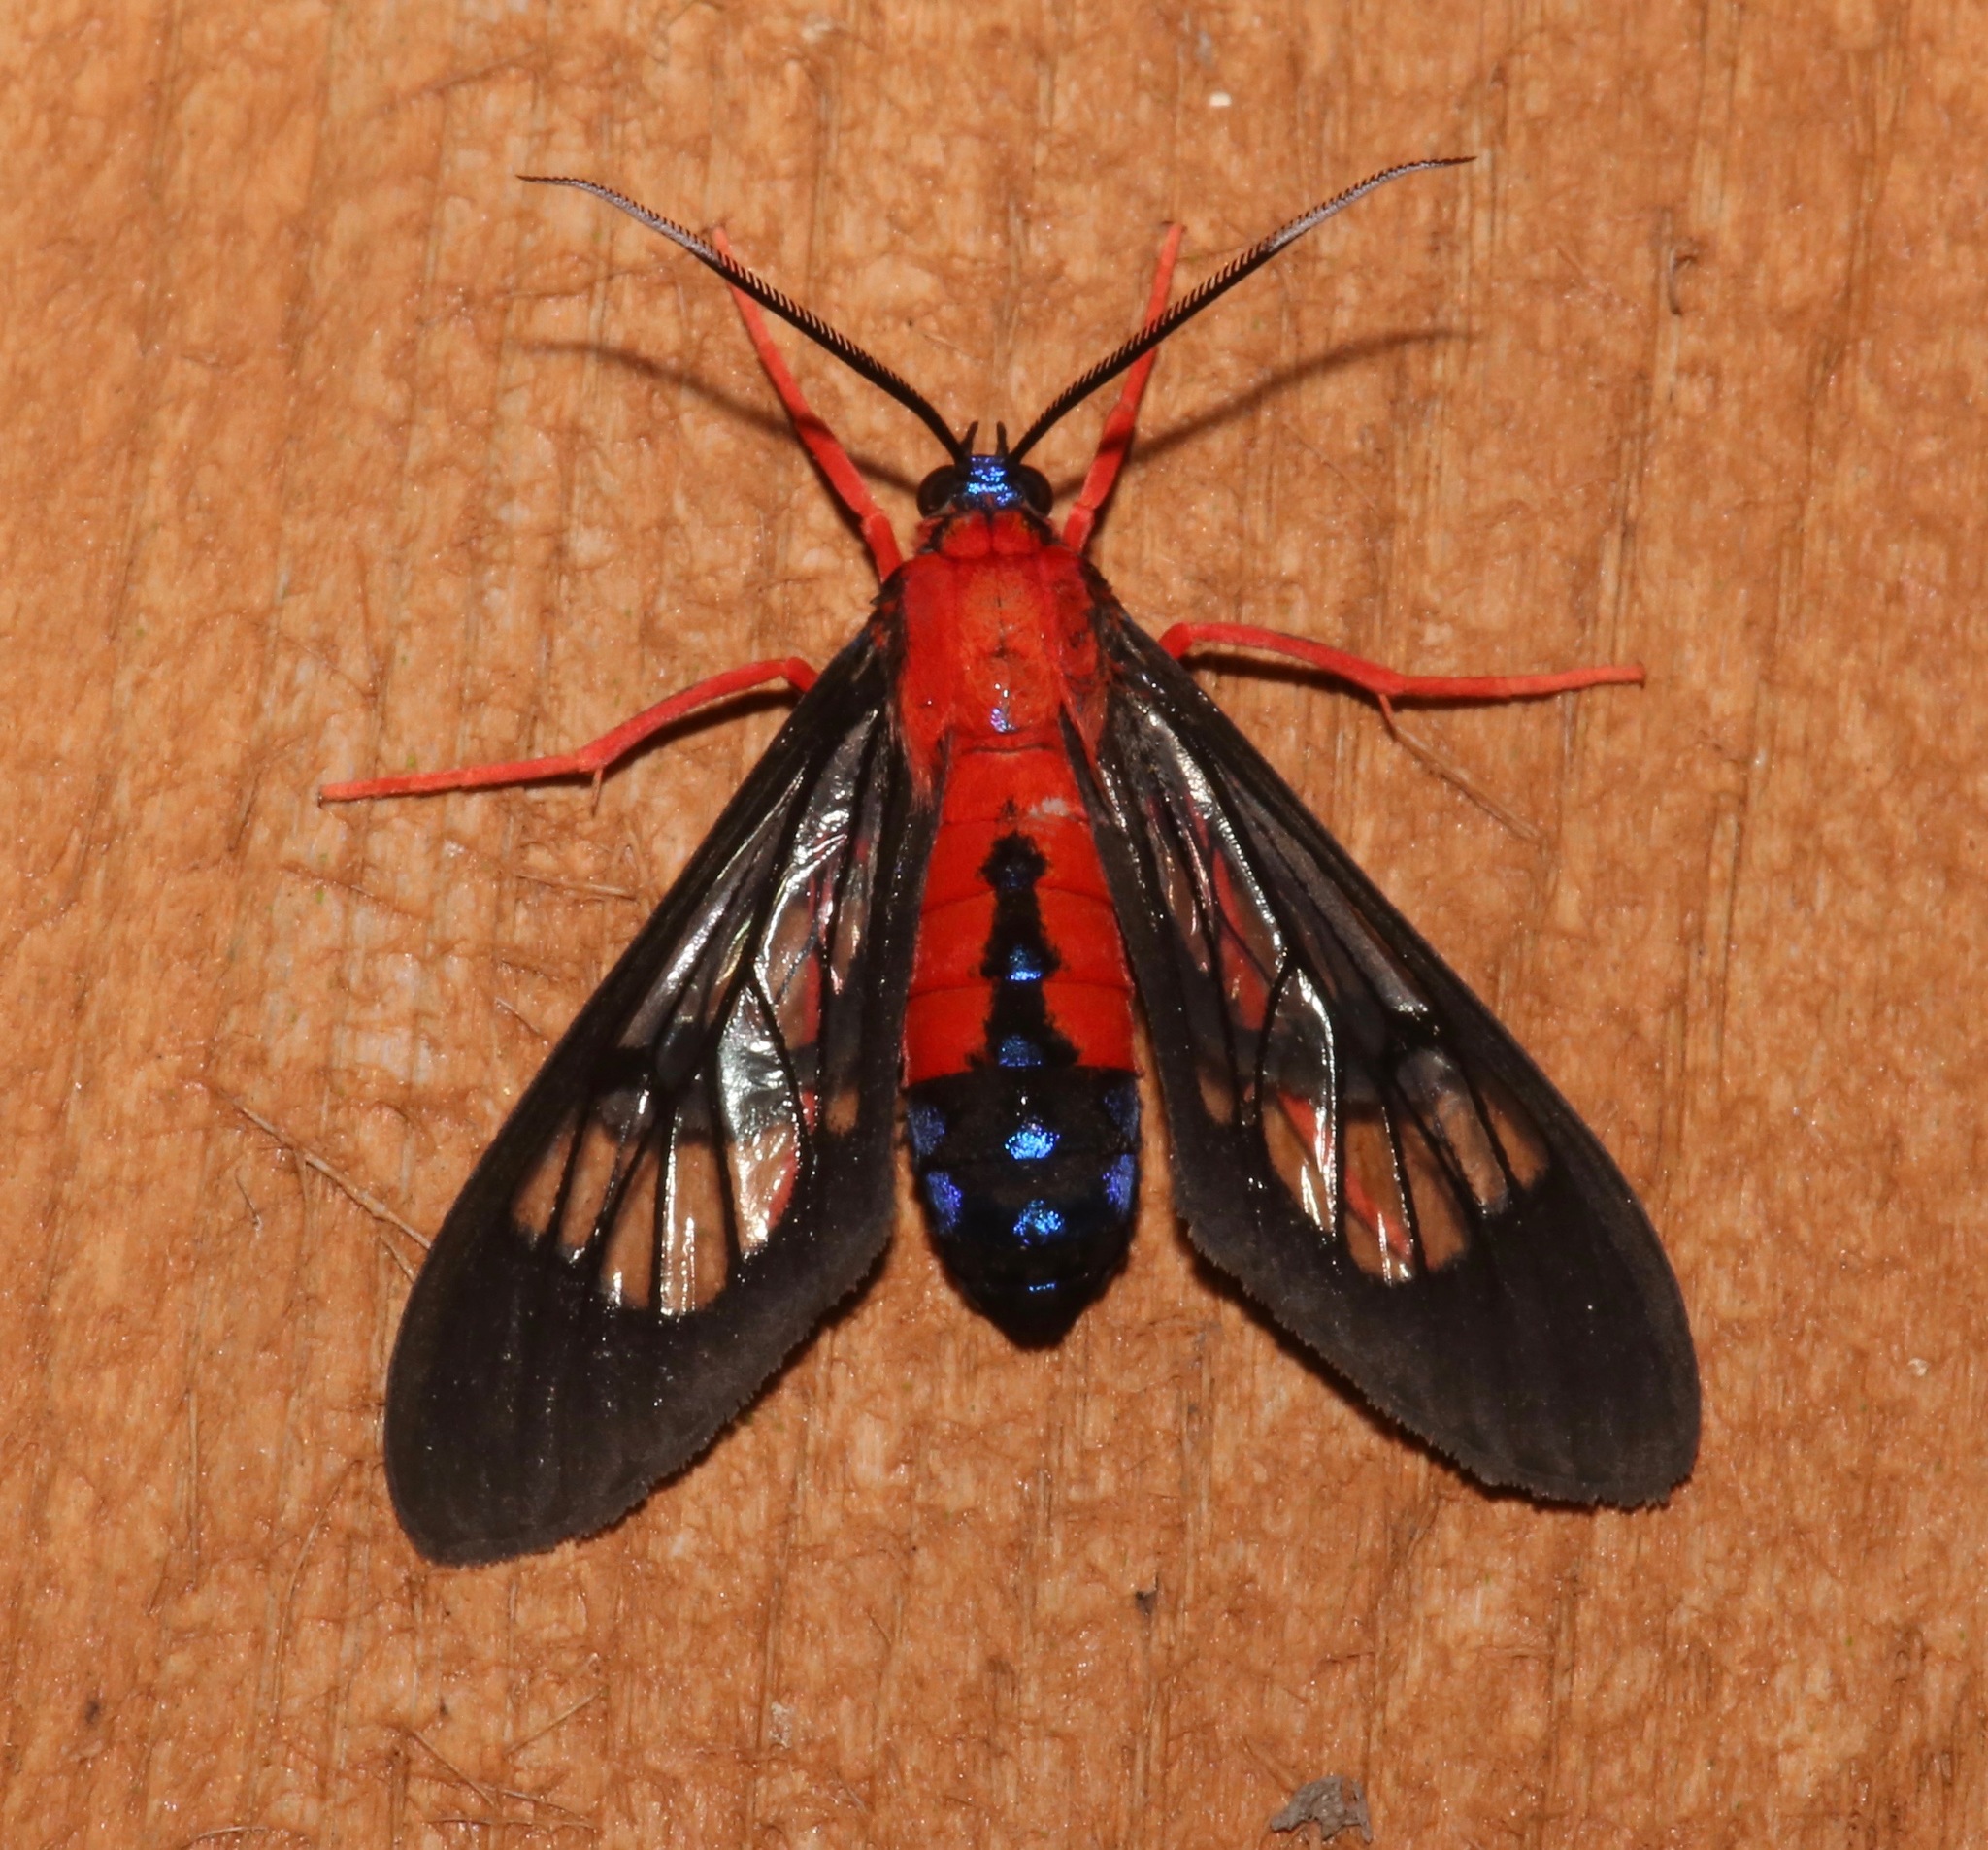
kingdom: Animalia
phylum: Arthropoda
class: Insecta
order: Lepidoptera
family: Erebidae
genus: Cosmosoma
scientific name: Cosmosoma myrodora
